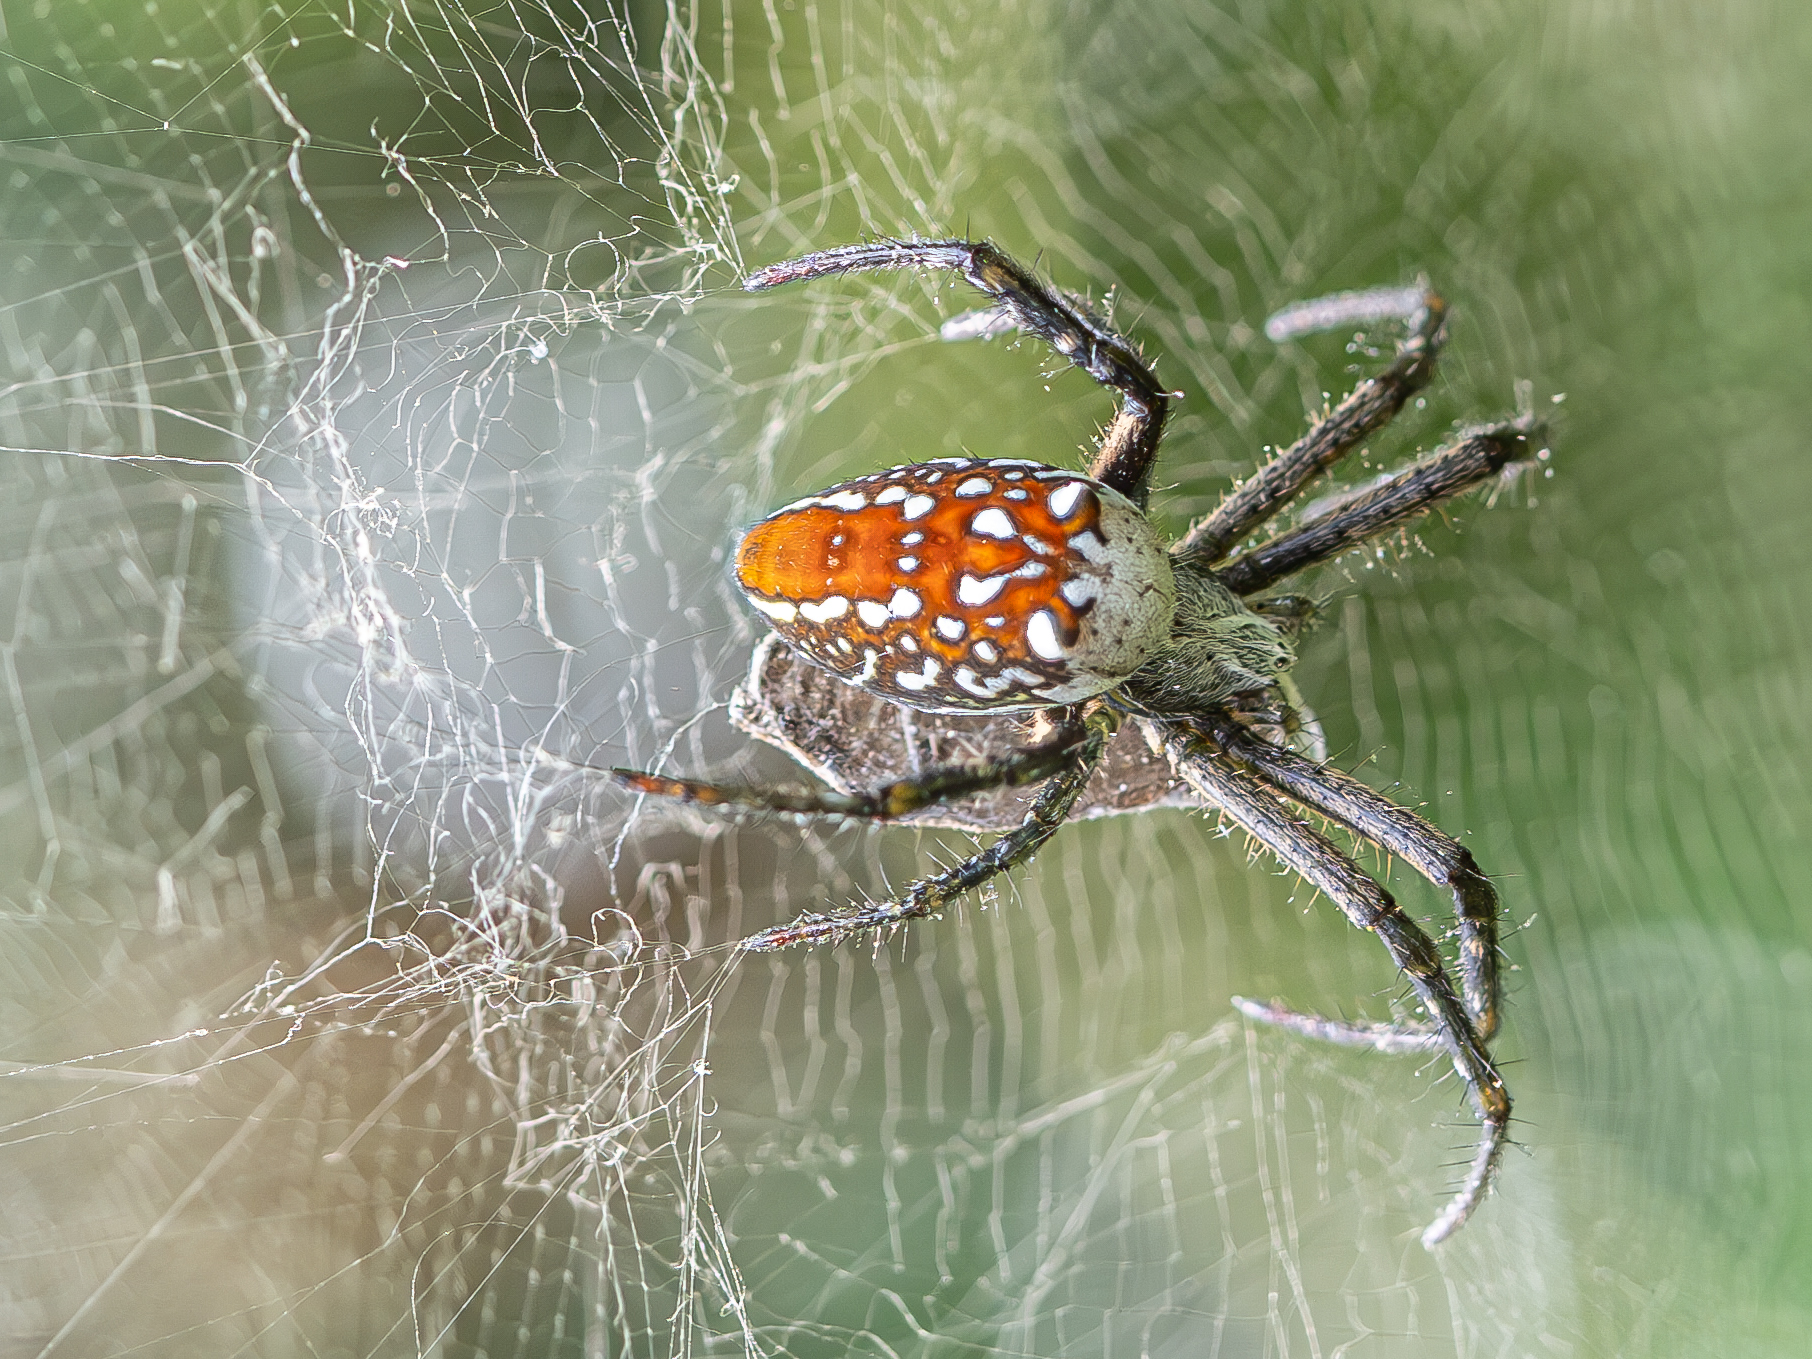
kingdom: Chromista
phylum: Ochrophyta
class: Dictyochophyceae
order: Pedinellales
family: Cyrtophoraceae
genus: Cyrtophora
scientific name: Cyrtophora moluccensis
